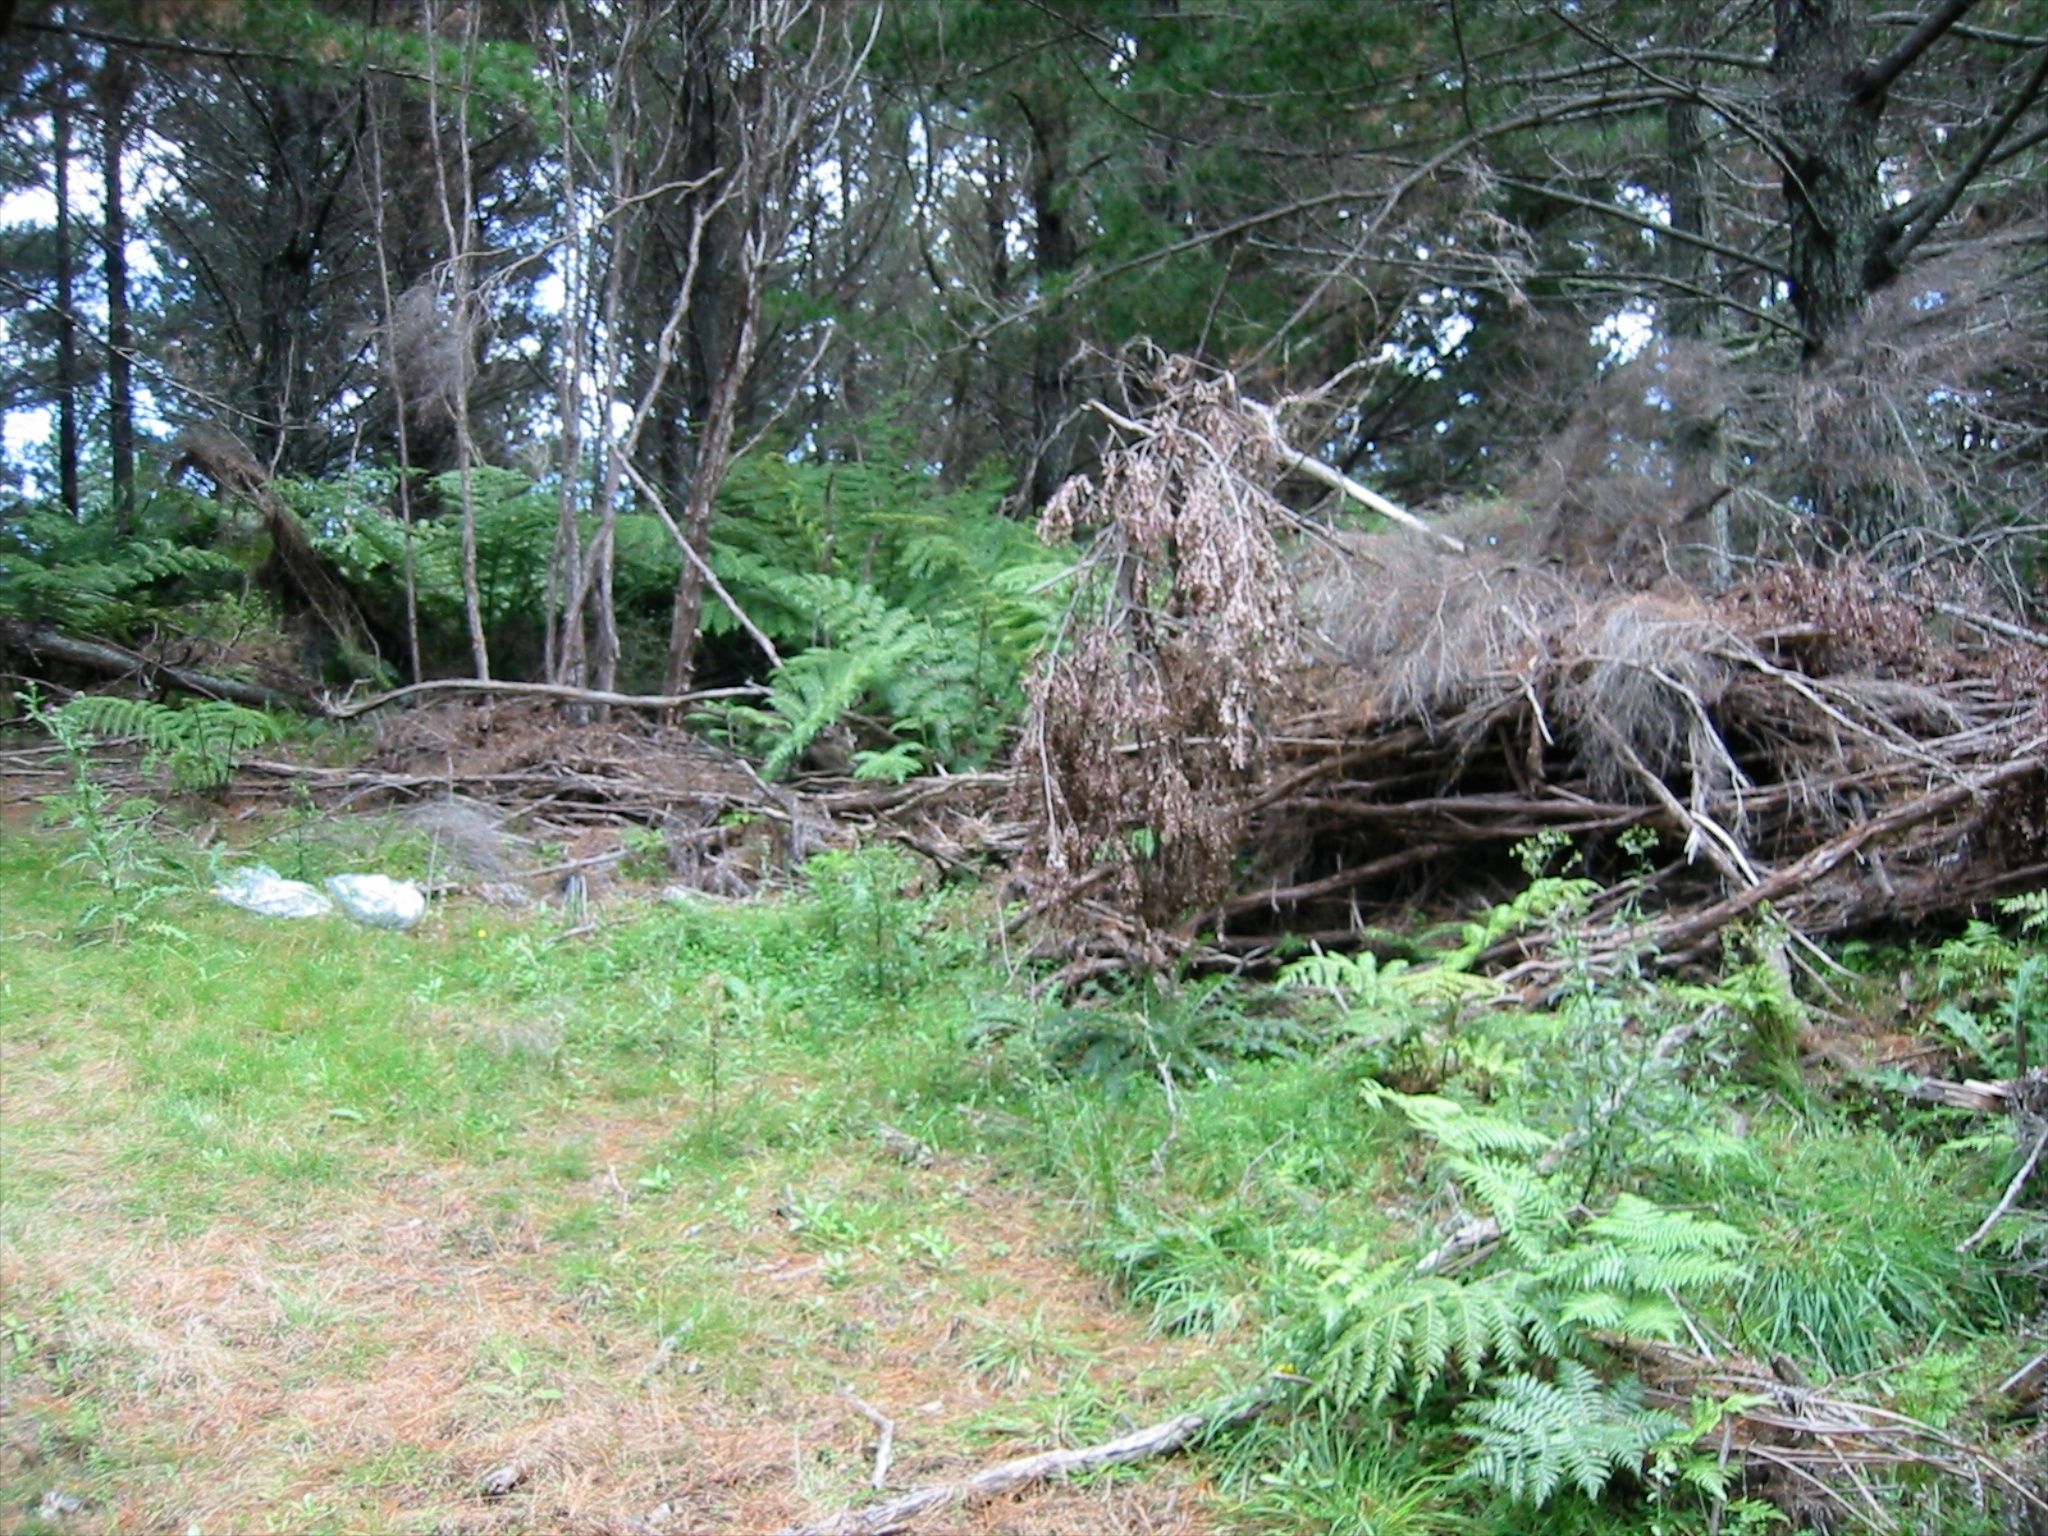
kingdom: Plantae
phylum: Tracheophyta
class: Magnoliopsida
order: Asterales
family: Asteraceae
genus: Senecio
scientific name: Senecio minimus
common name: Toothed fireweed
